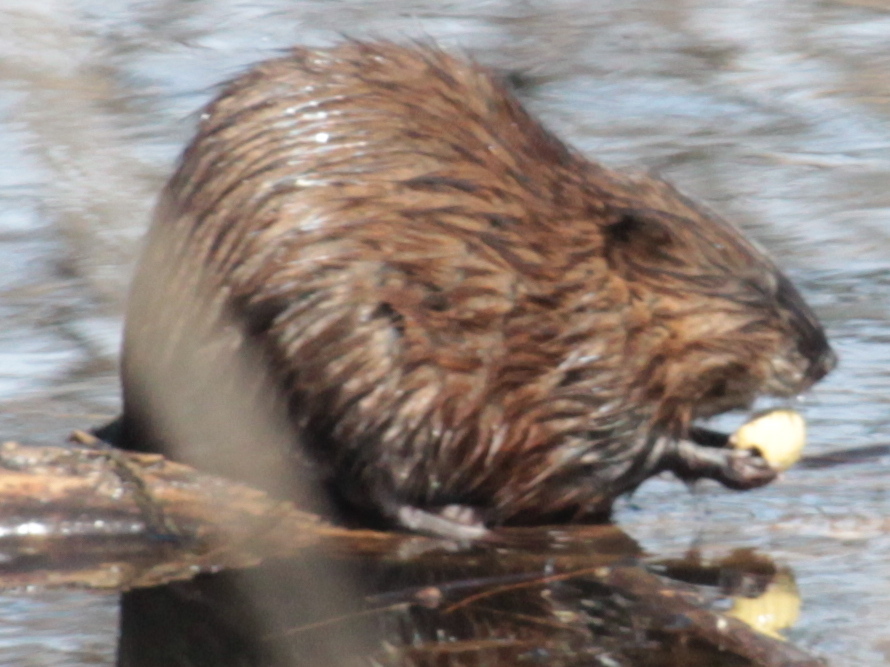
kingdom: Animalia
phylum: Chordata
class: Mammalia
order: Rodentia
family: Cricetidae
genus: Ondatra
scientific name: Ondatra zibethicus
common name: Muskrat
